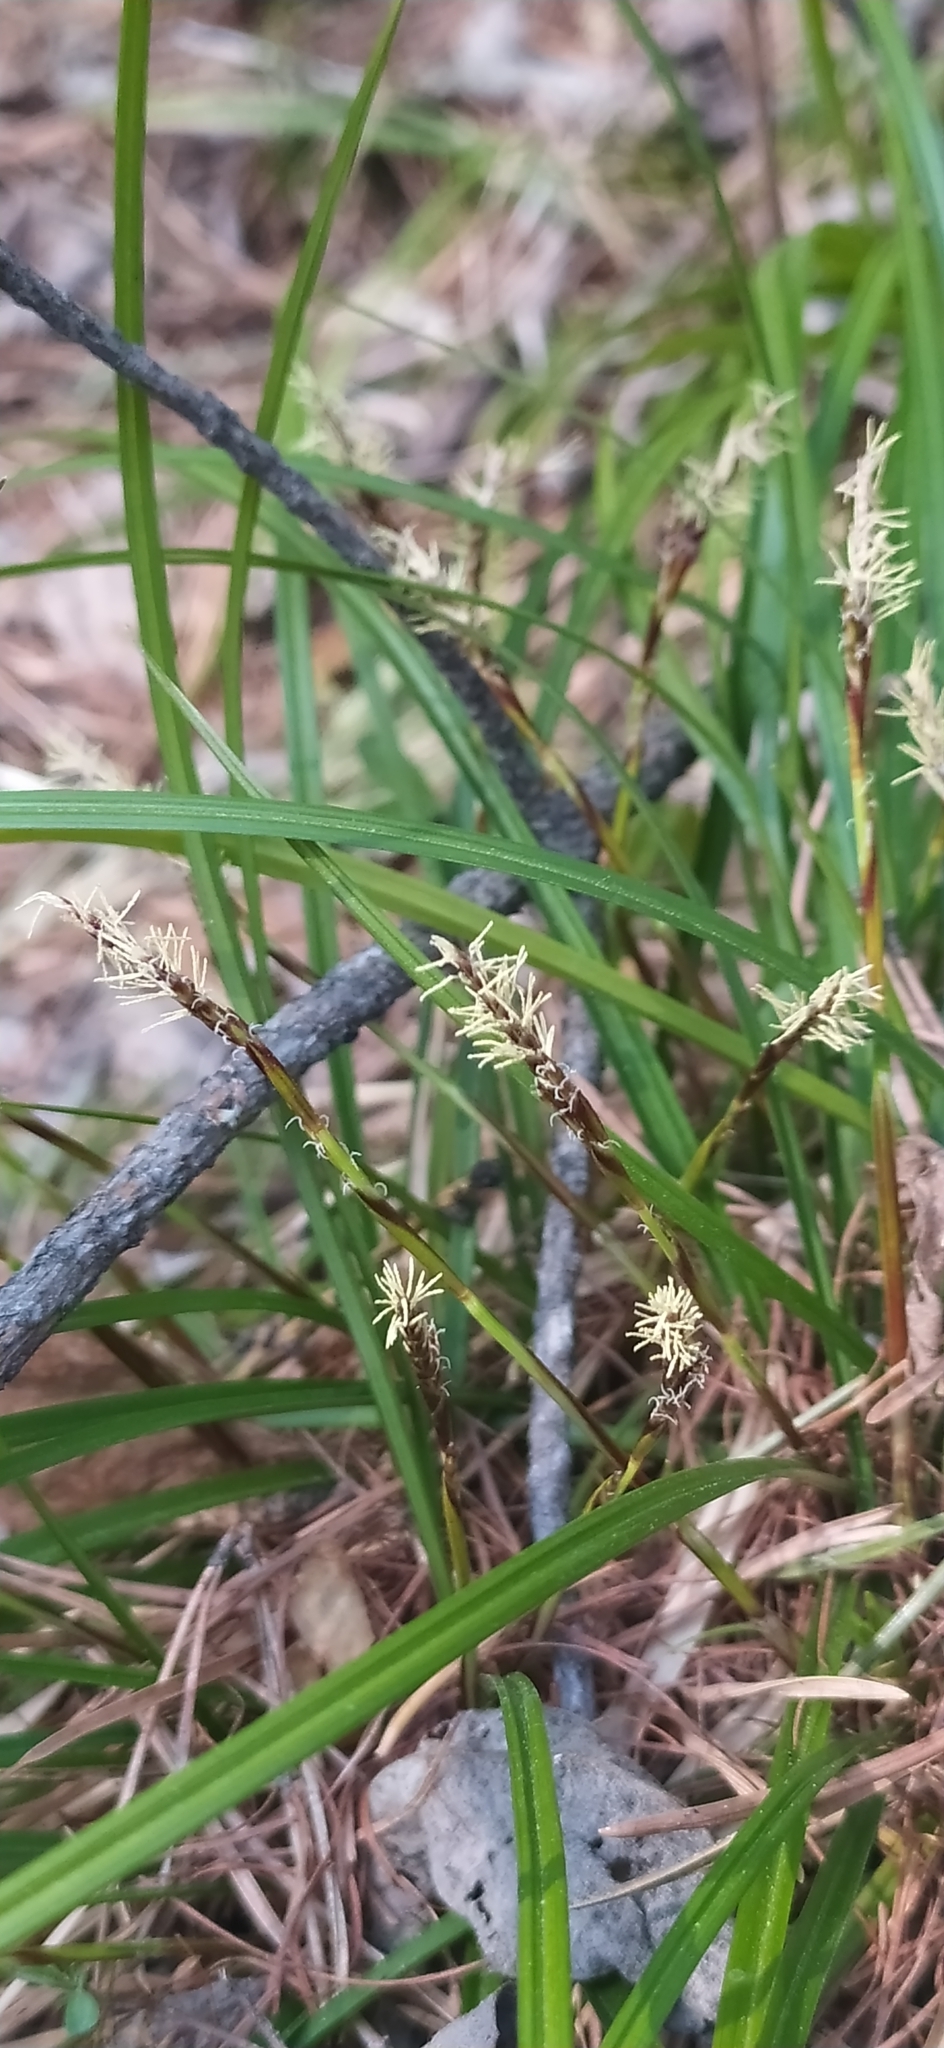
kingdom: Plantae
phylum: Tracheophyta
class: Liliopsida
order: Poales
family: Cyperaceae
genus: Carex
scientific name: Carex digitata
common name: Fingered sedge
